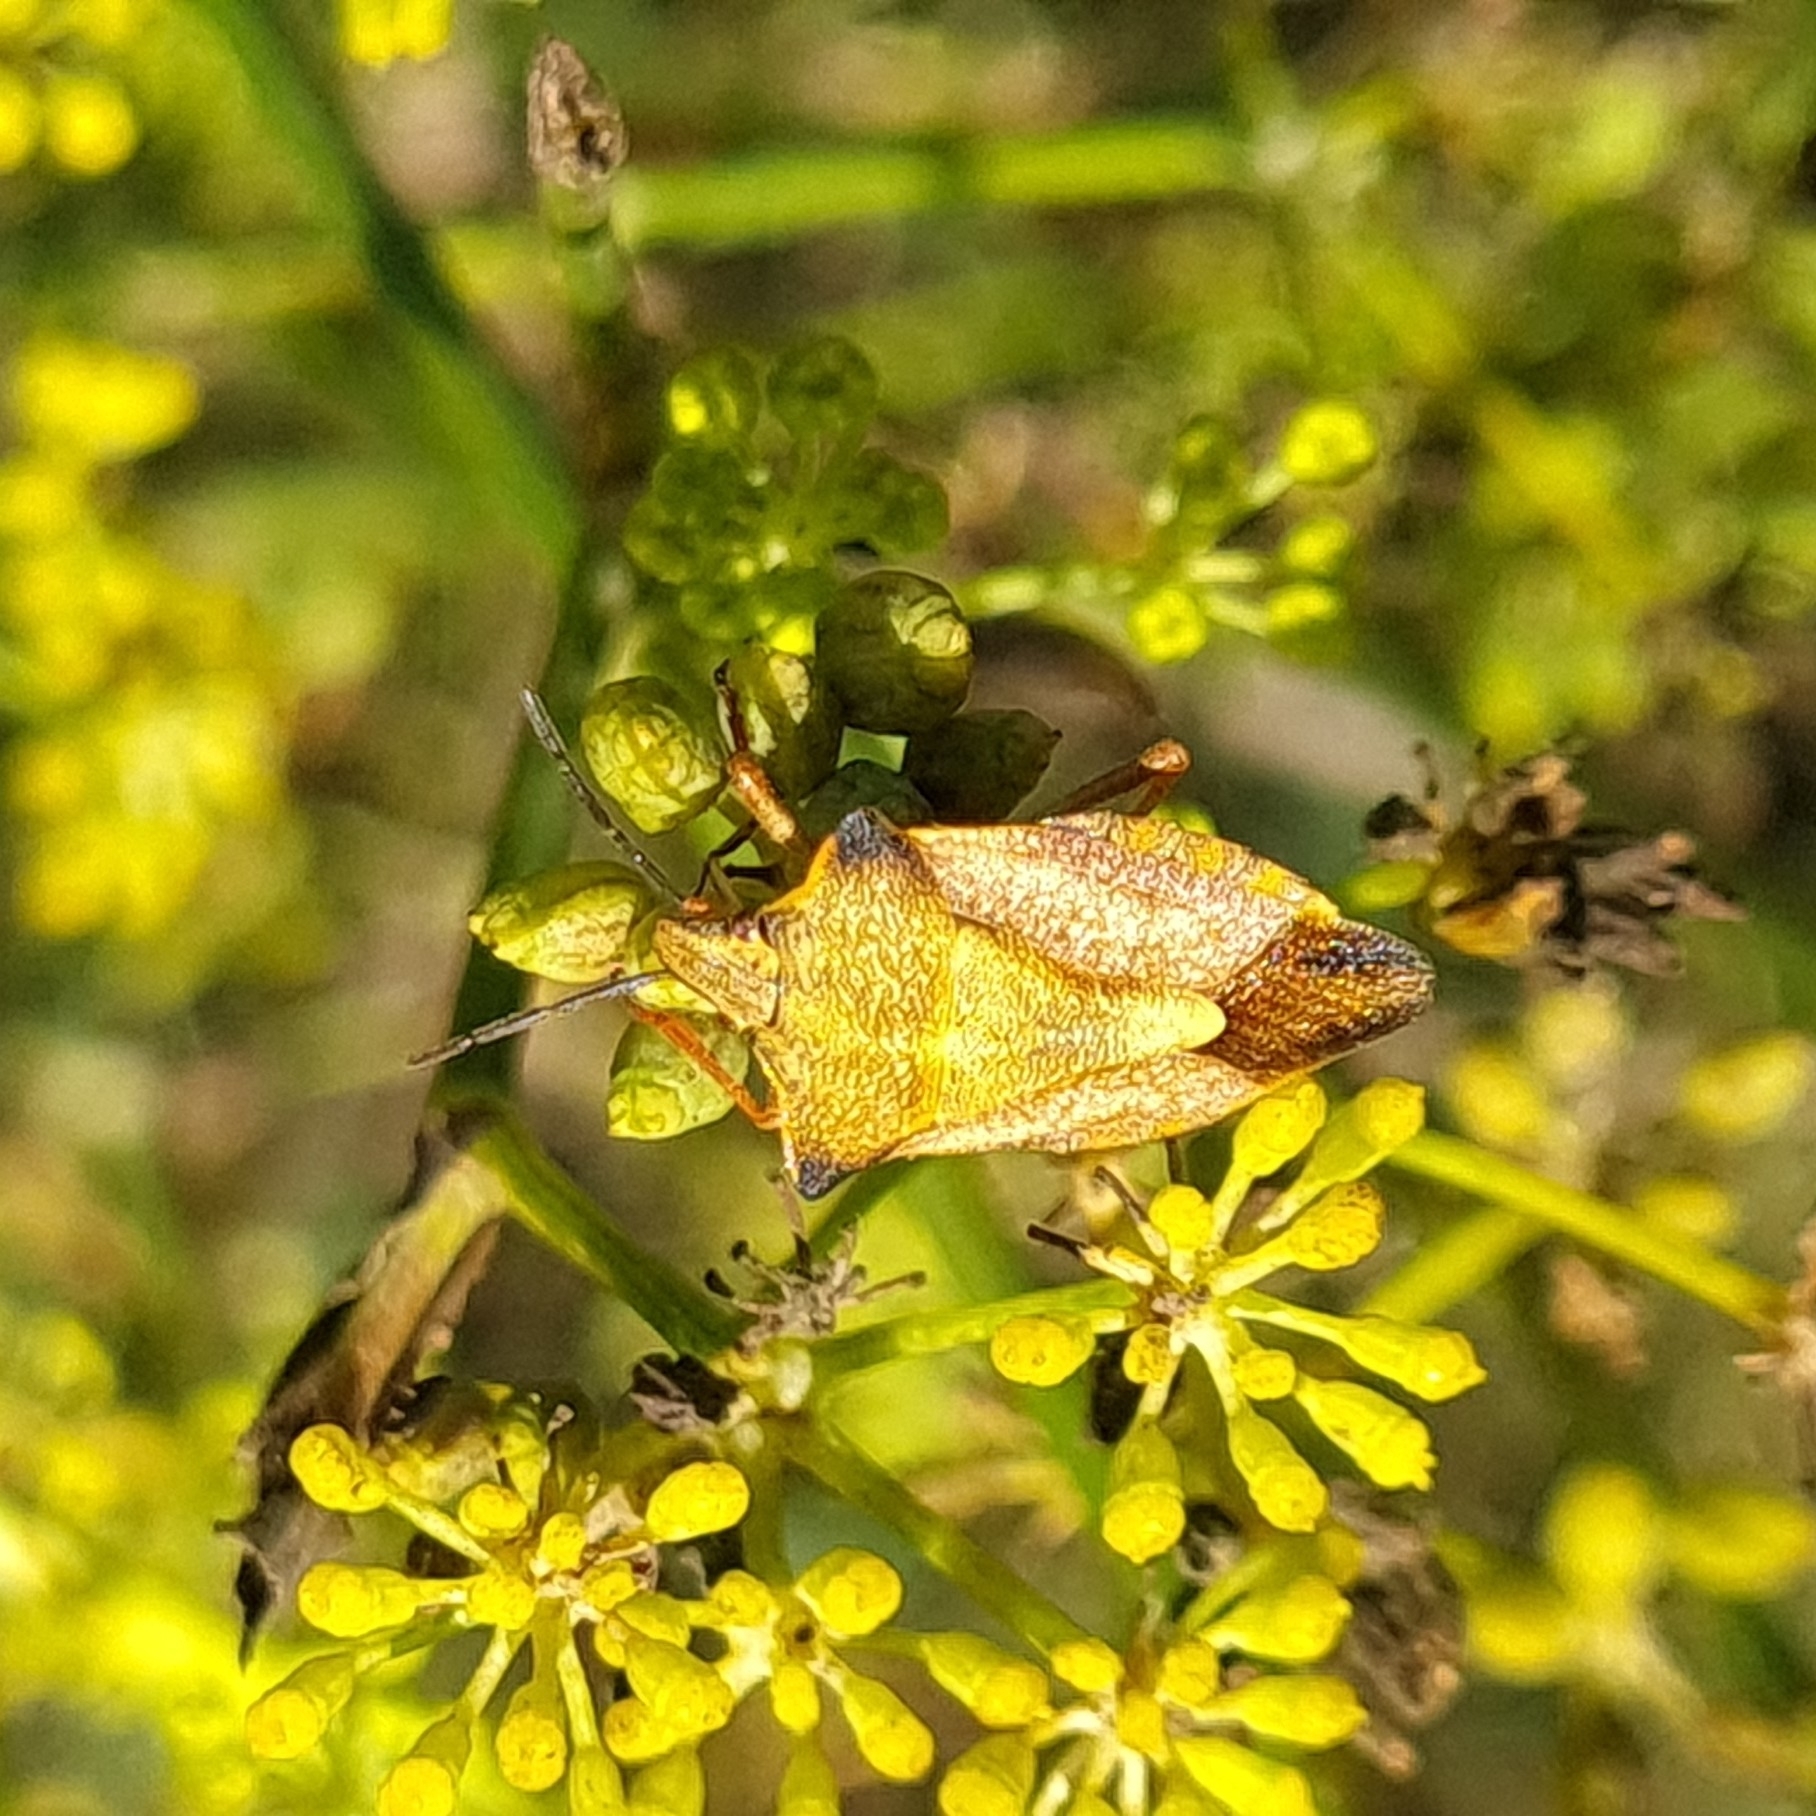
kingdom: Animalia
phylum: Arthropoda
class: Insecta
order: Hemiptera
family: Pentatomidae
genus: Carpocoris
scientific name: Carpocoris mediterraneus
